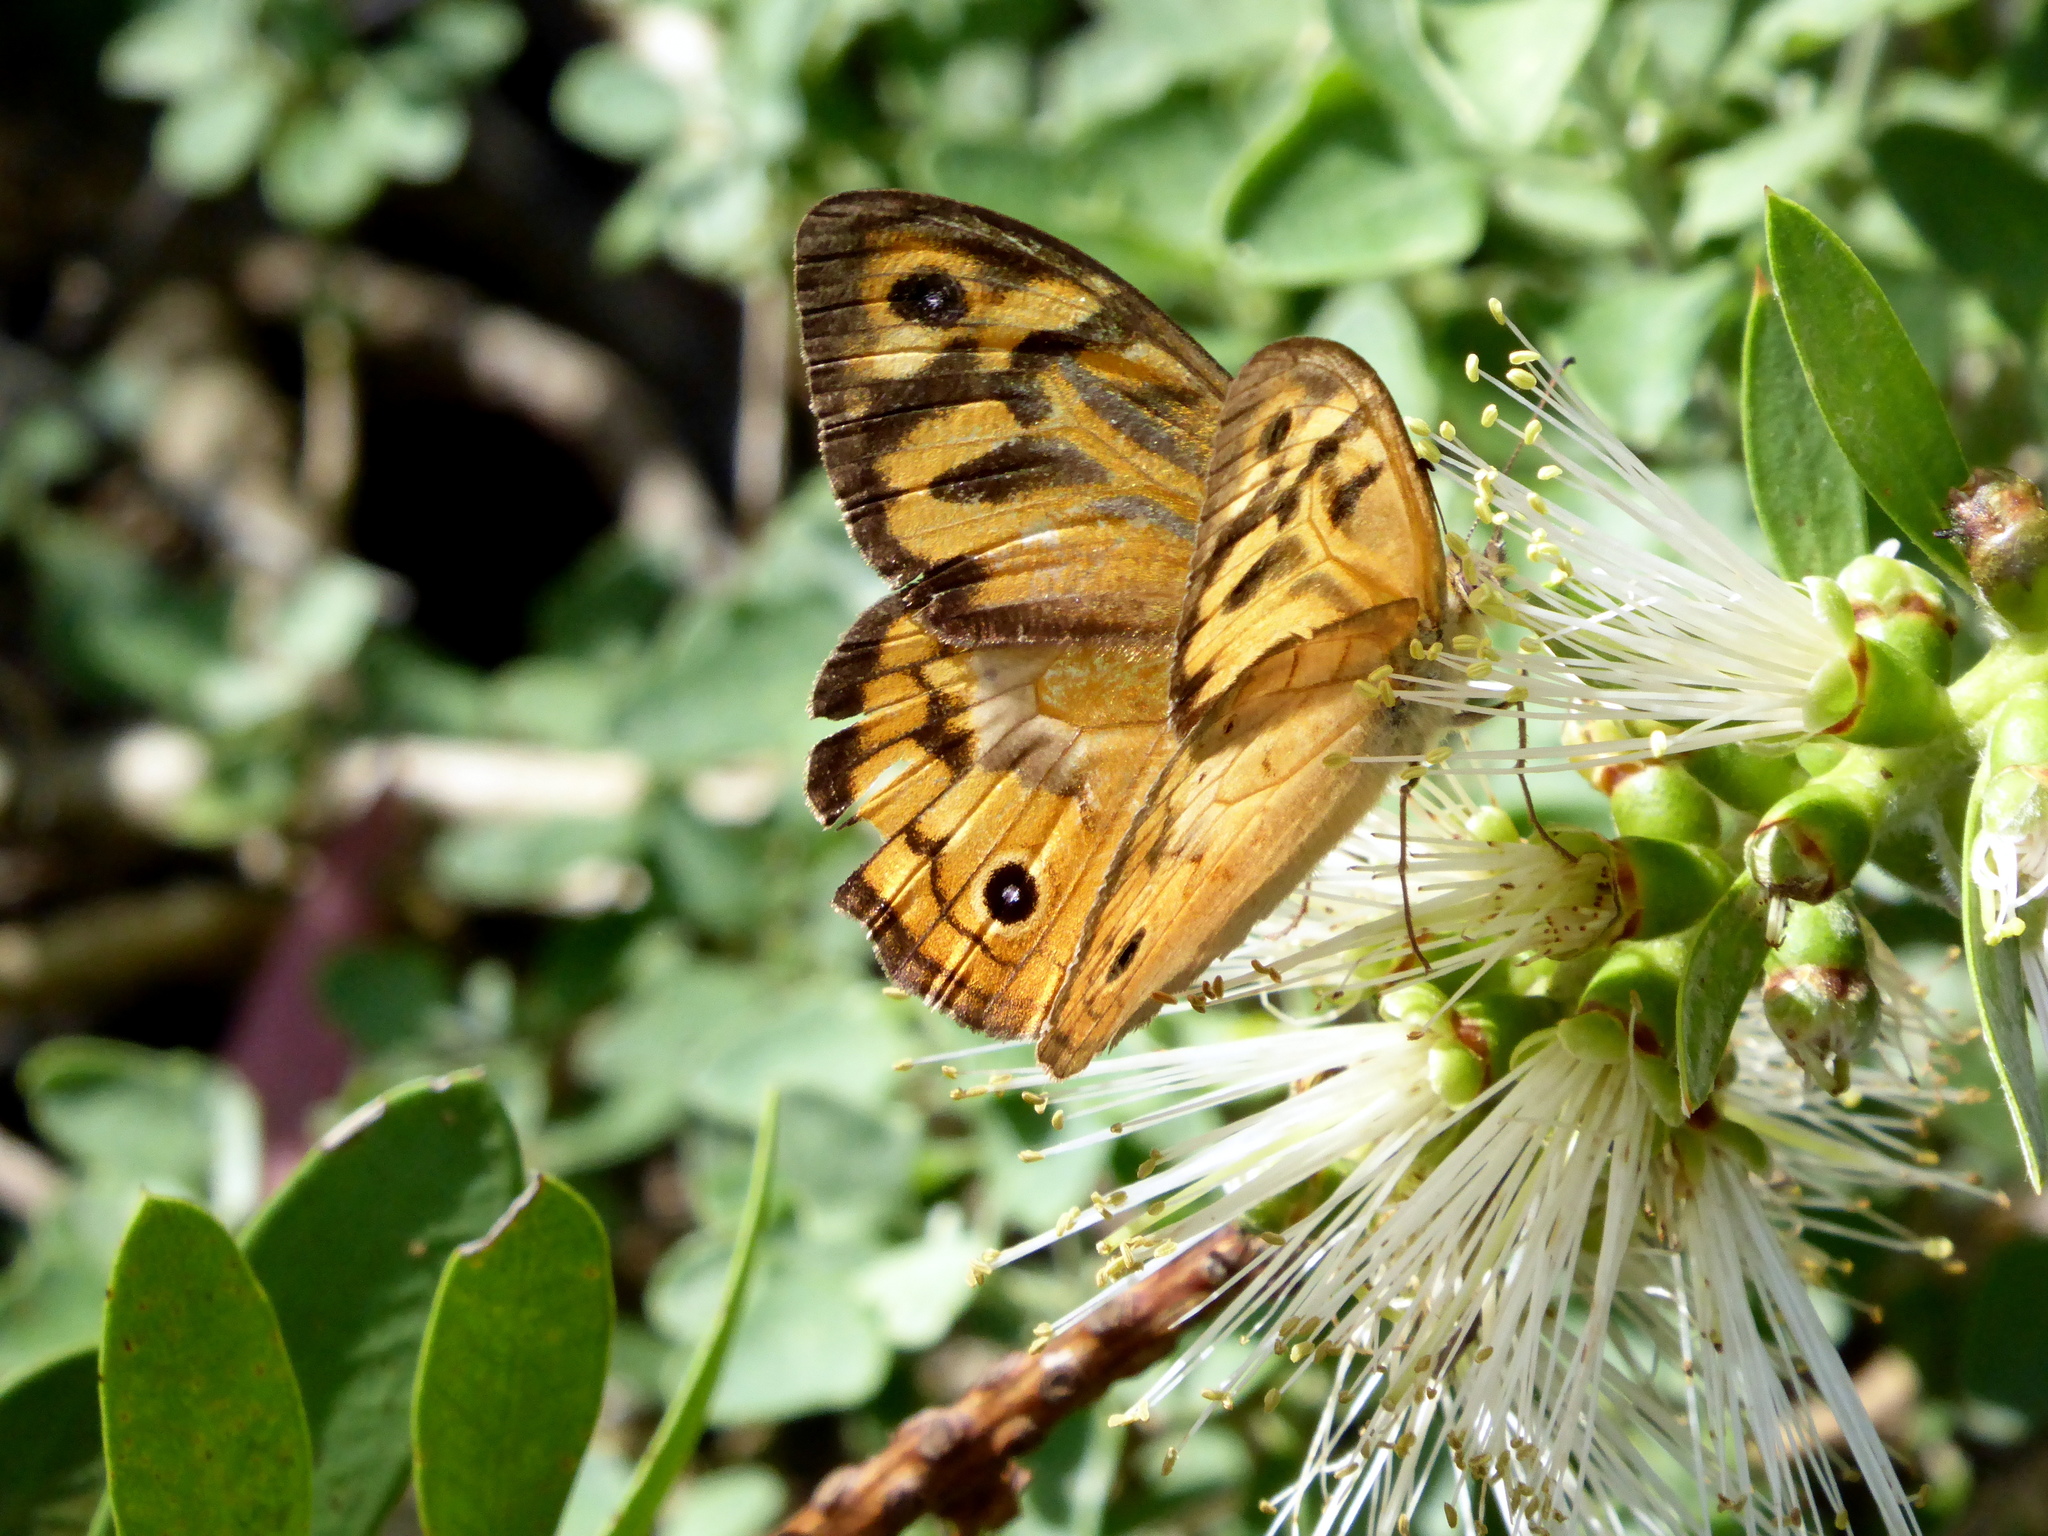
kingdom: Animalia
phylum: Arthropoda
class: Insecta
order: Lepidoptera
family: Nymphalidae
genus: Heteronympha
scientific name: Heteronympha merope
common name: Common brown
